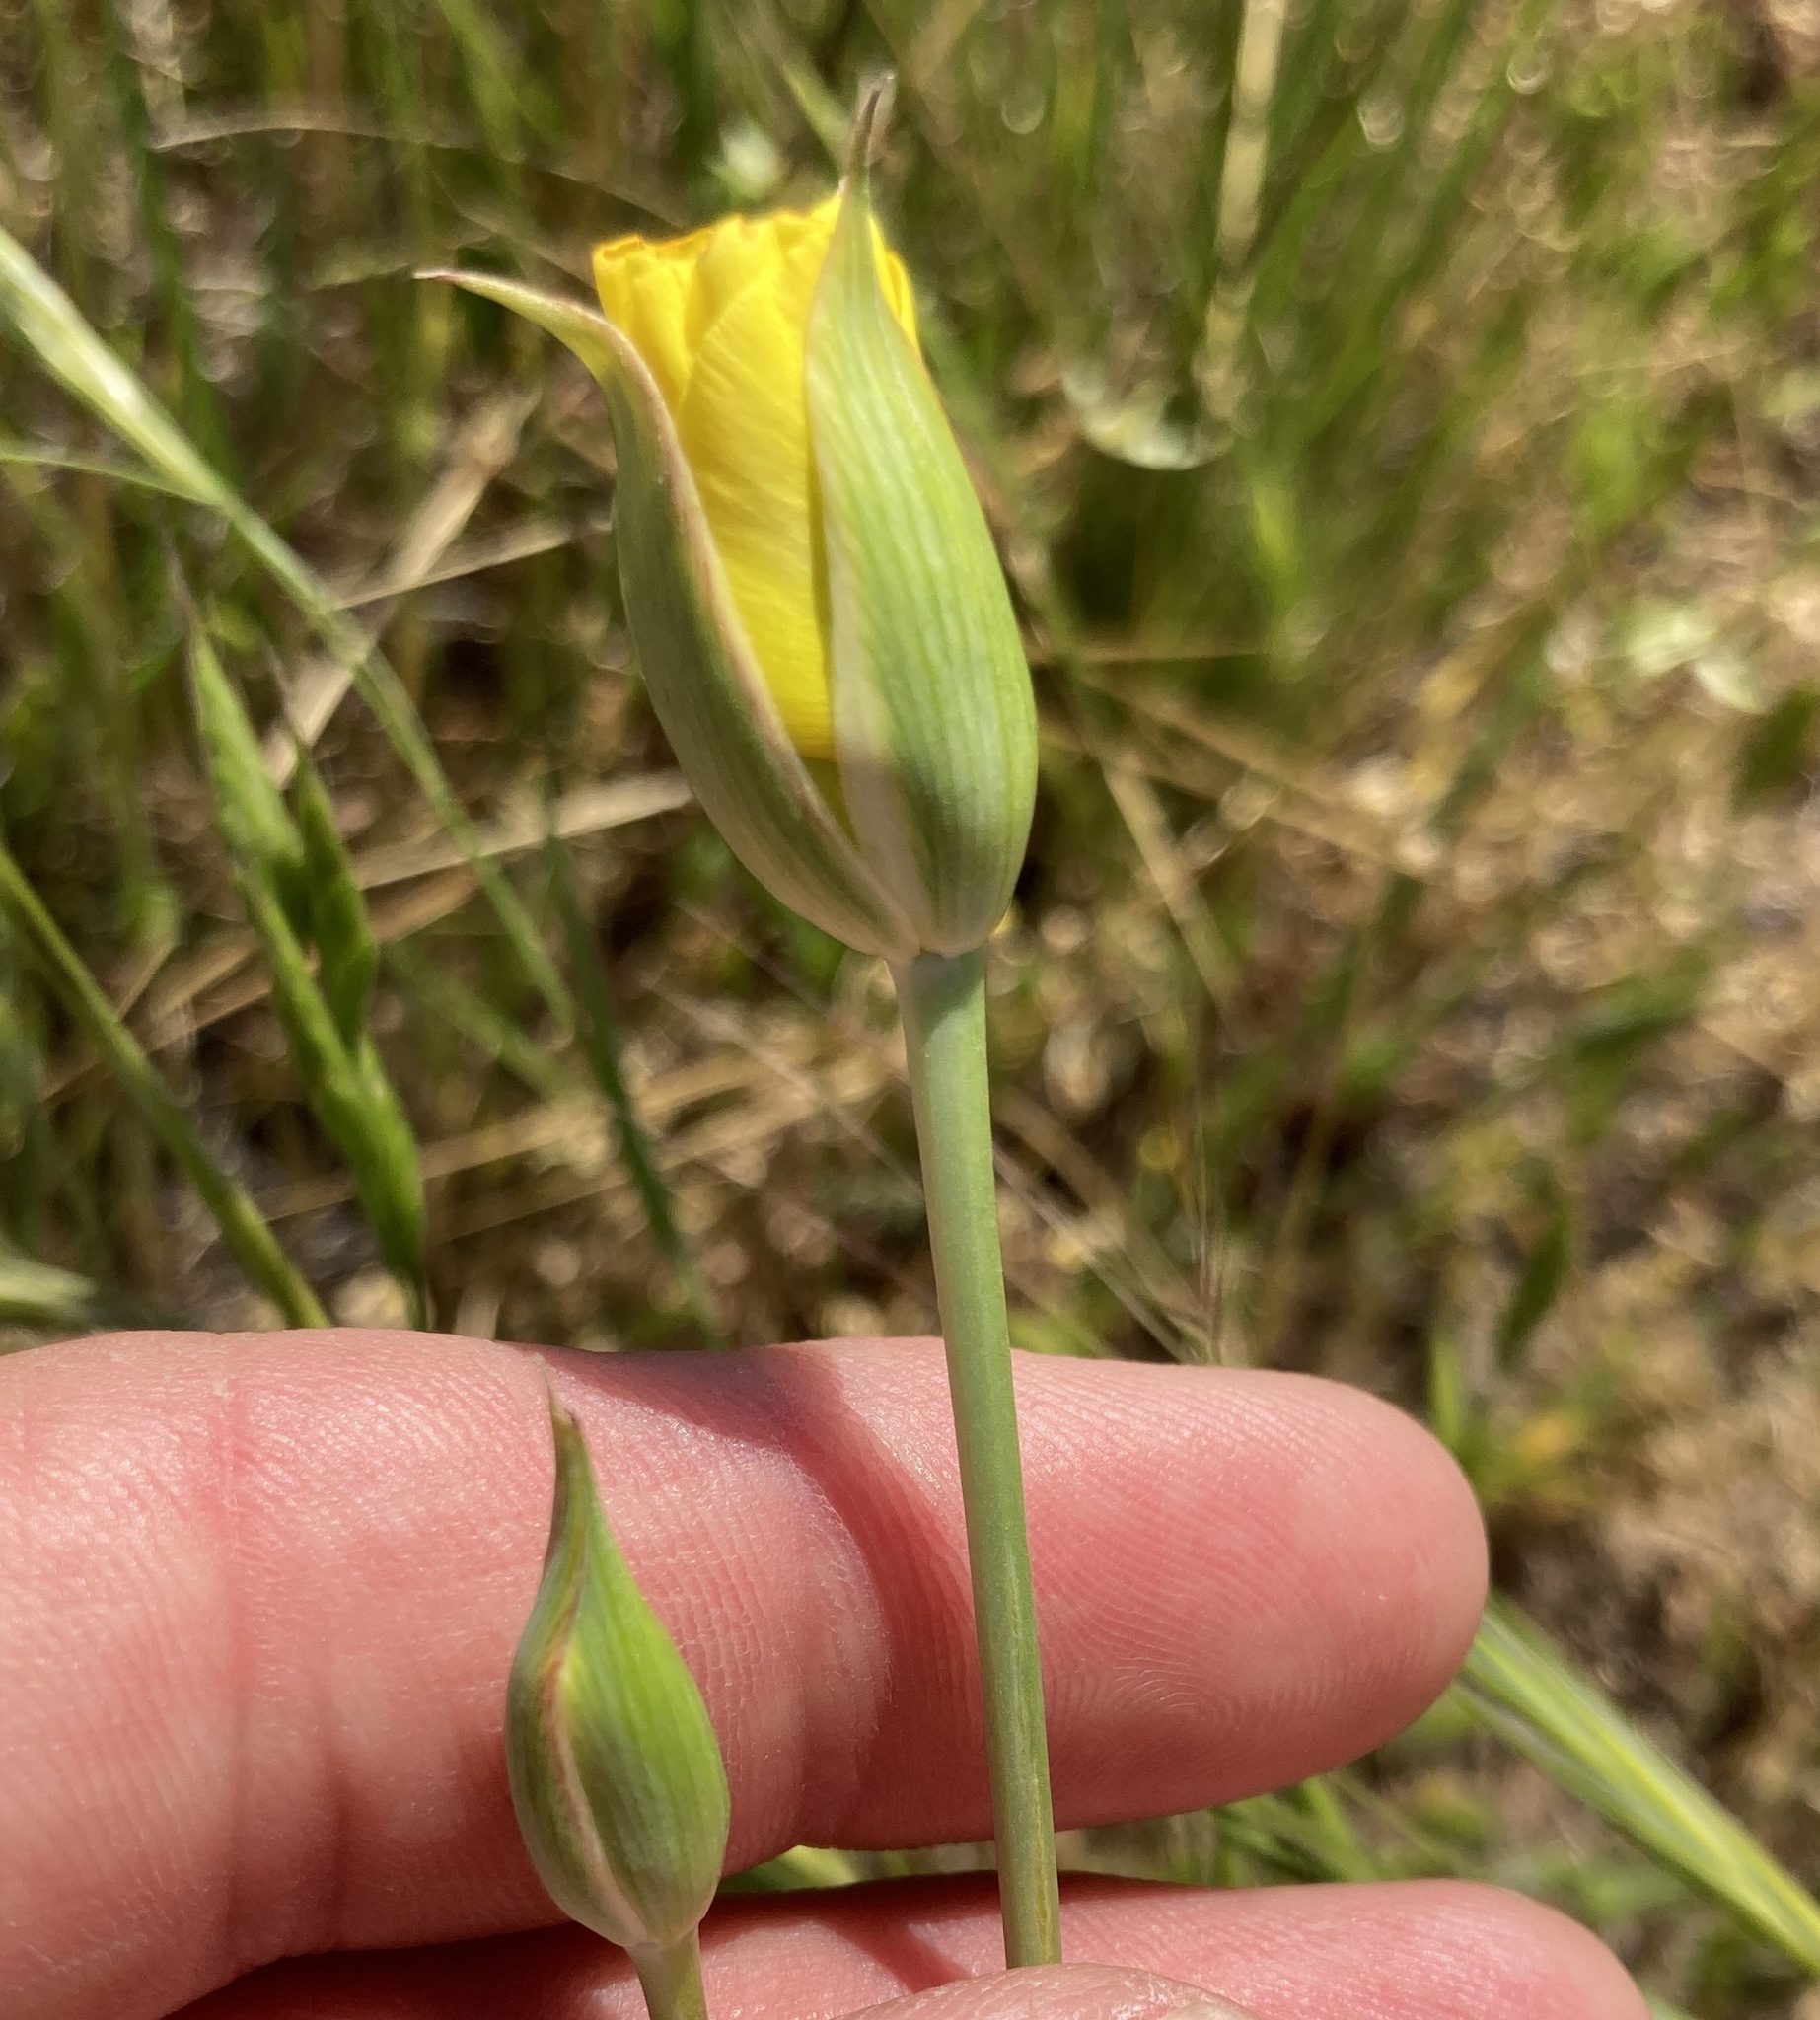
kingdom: Plantae
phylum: Tracheophyta
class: Liliopsida
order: Liliales
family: Liliaceae
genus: Calochortus
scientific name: Calochortus luteus
